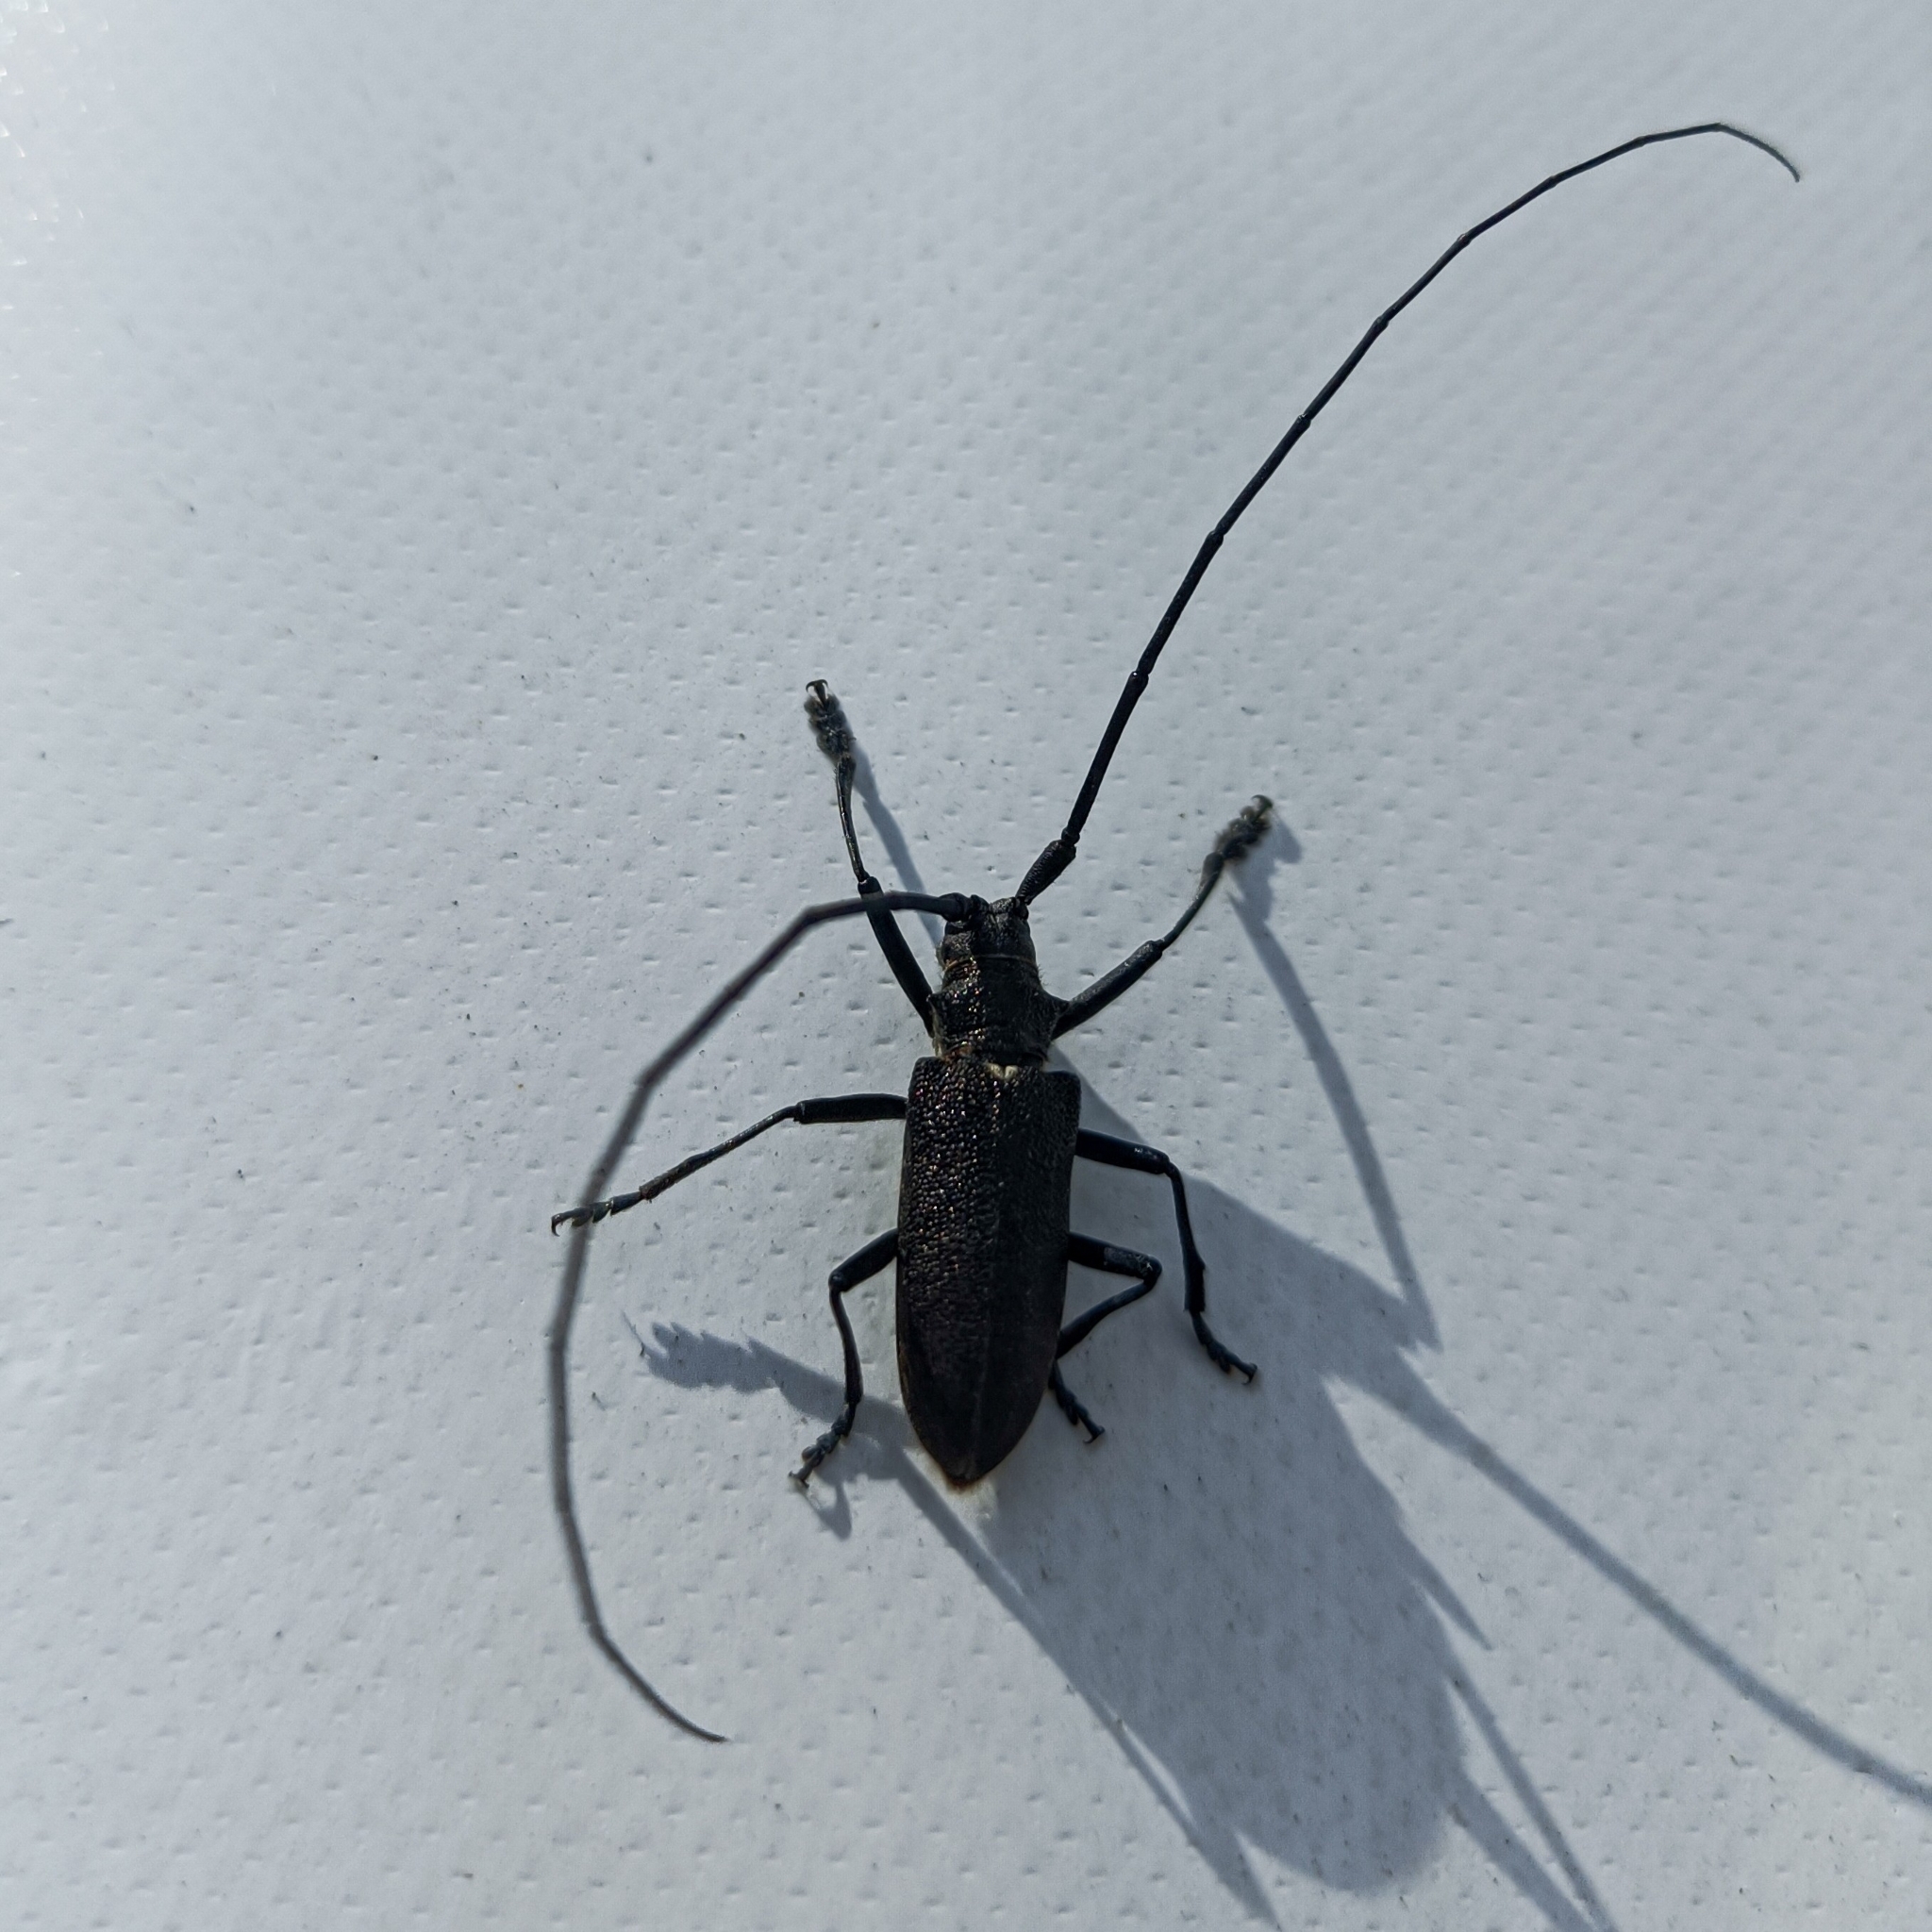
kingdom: Animalia
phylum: Arthropoda
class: Insecta
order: Coleoptera
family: Cerambycidae
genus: Monochamus
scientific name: Monochamus sutor
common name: Pine sawyer
